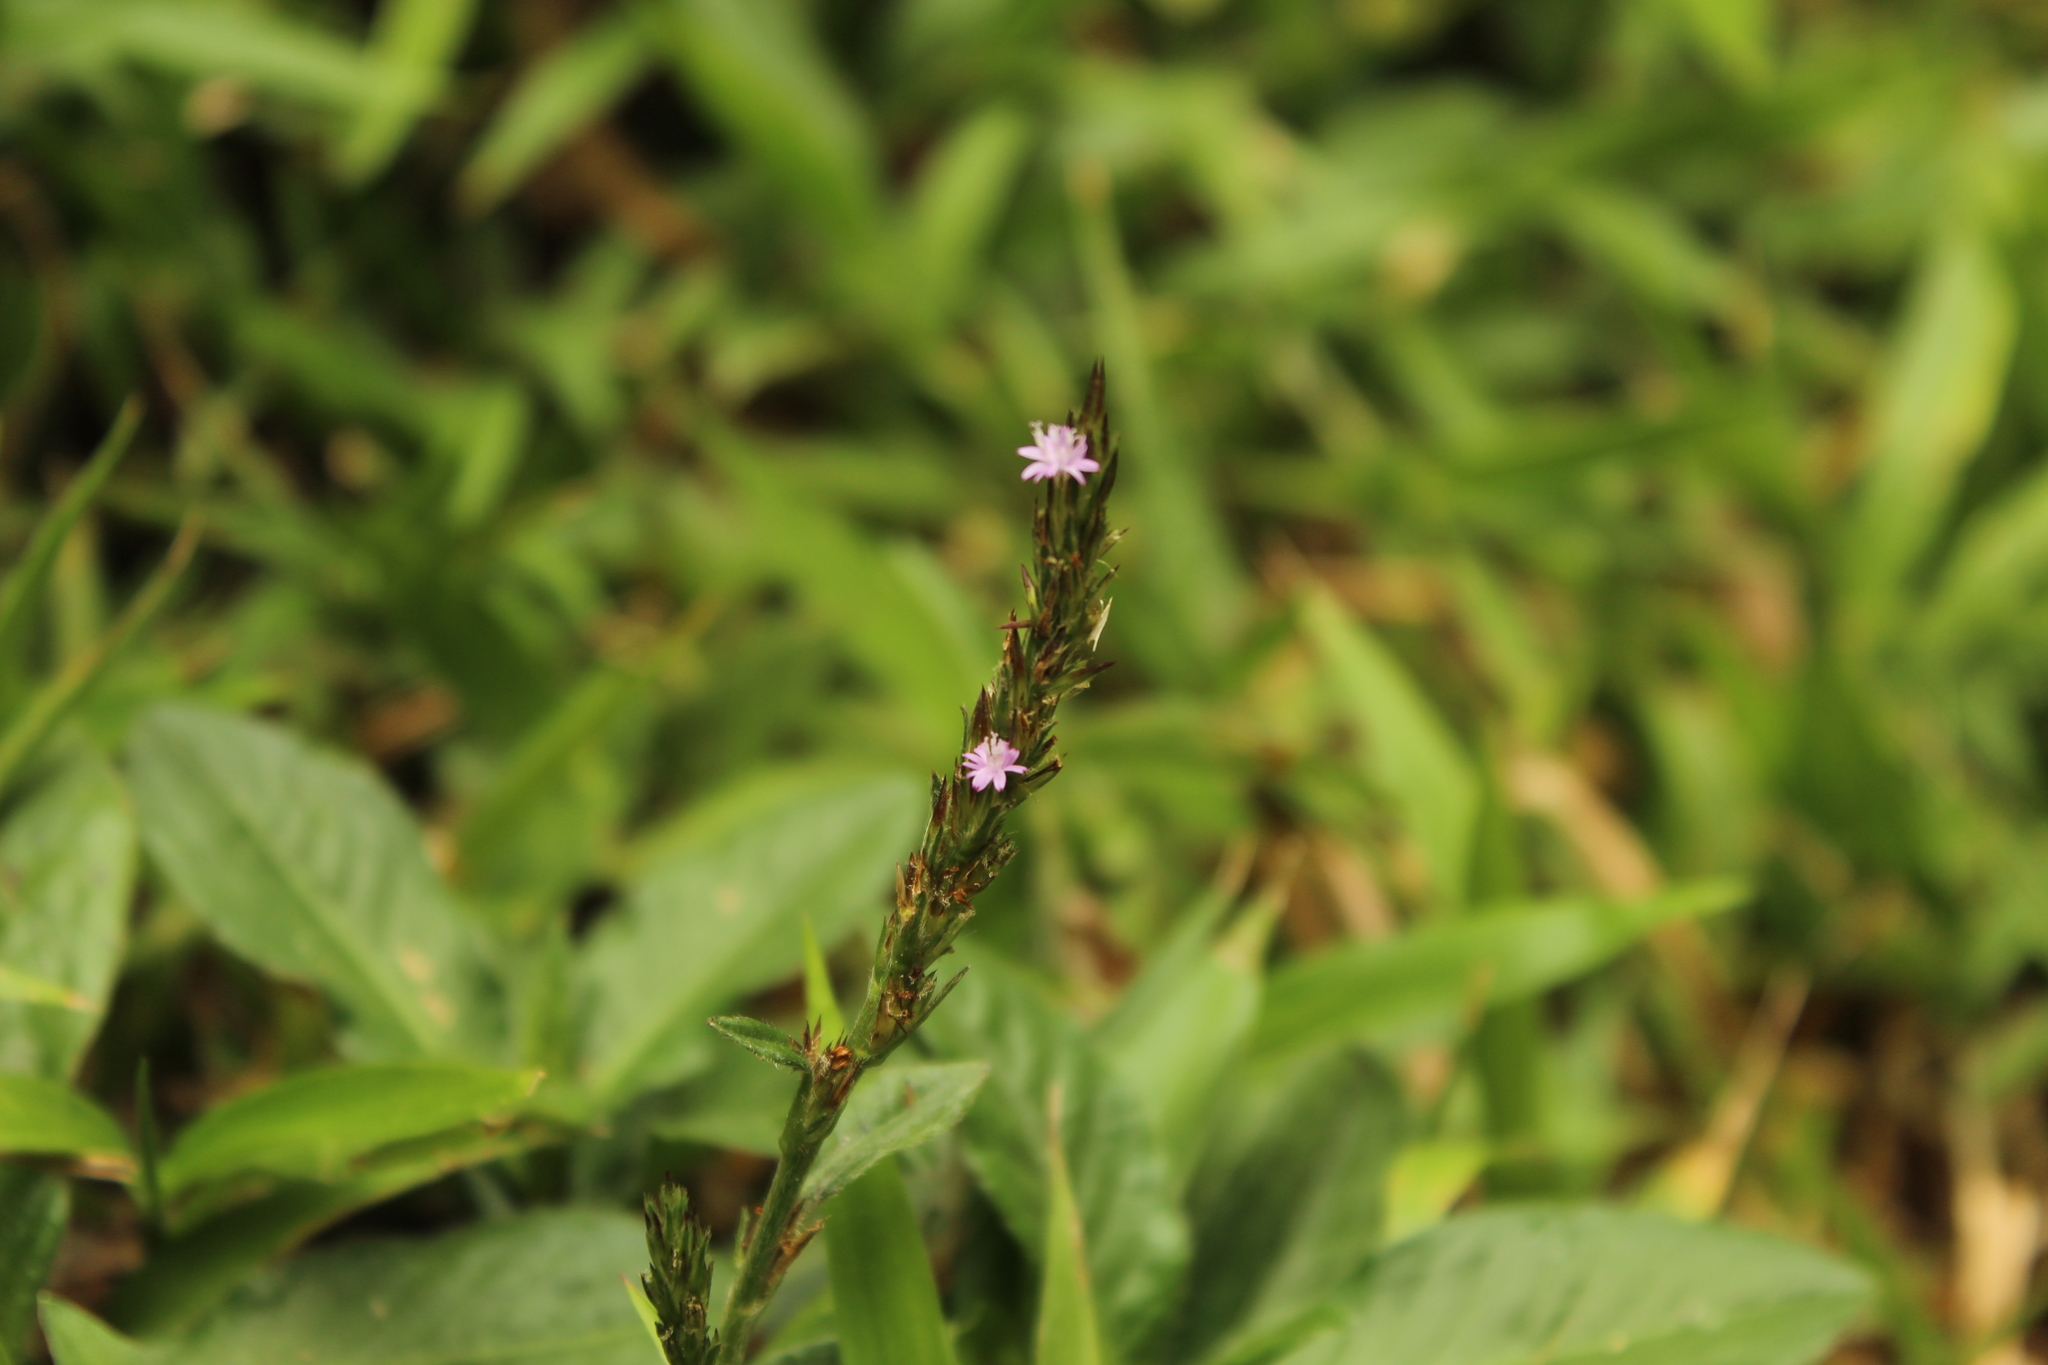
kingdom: Plantae
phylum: Tracheophyta
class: Magnoliopsida
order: Asterales
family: Asteraceae
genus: Pseudelephantopus
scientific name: Pseudelephantopus spiralis
